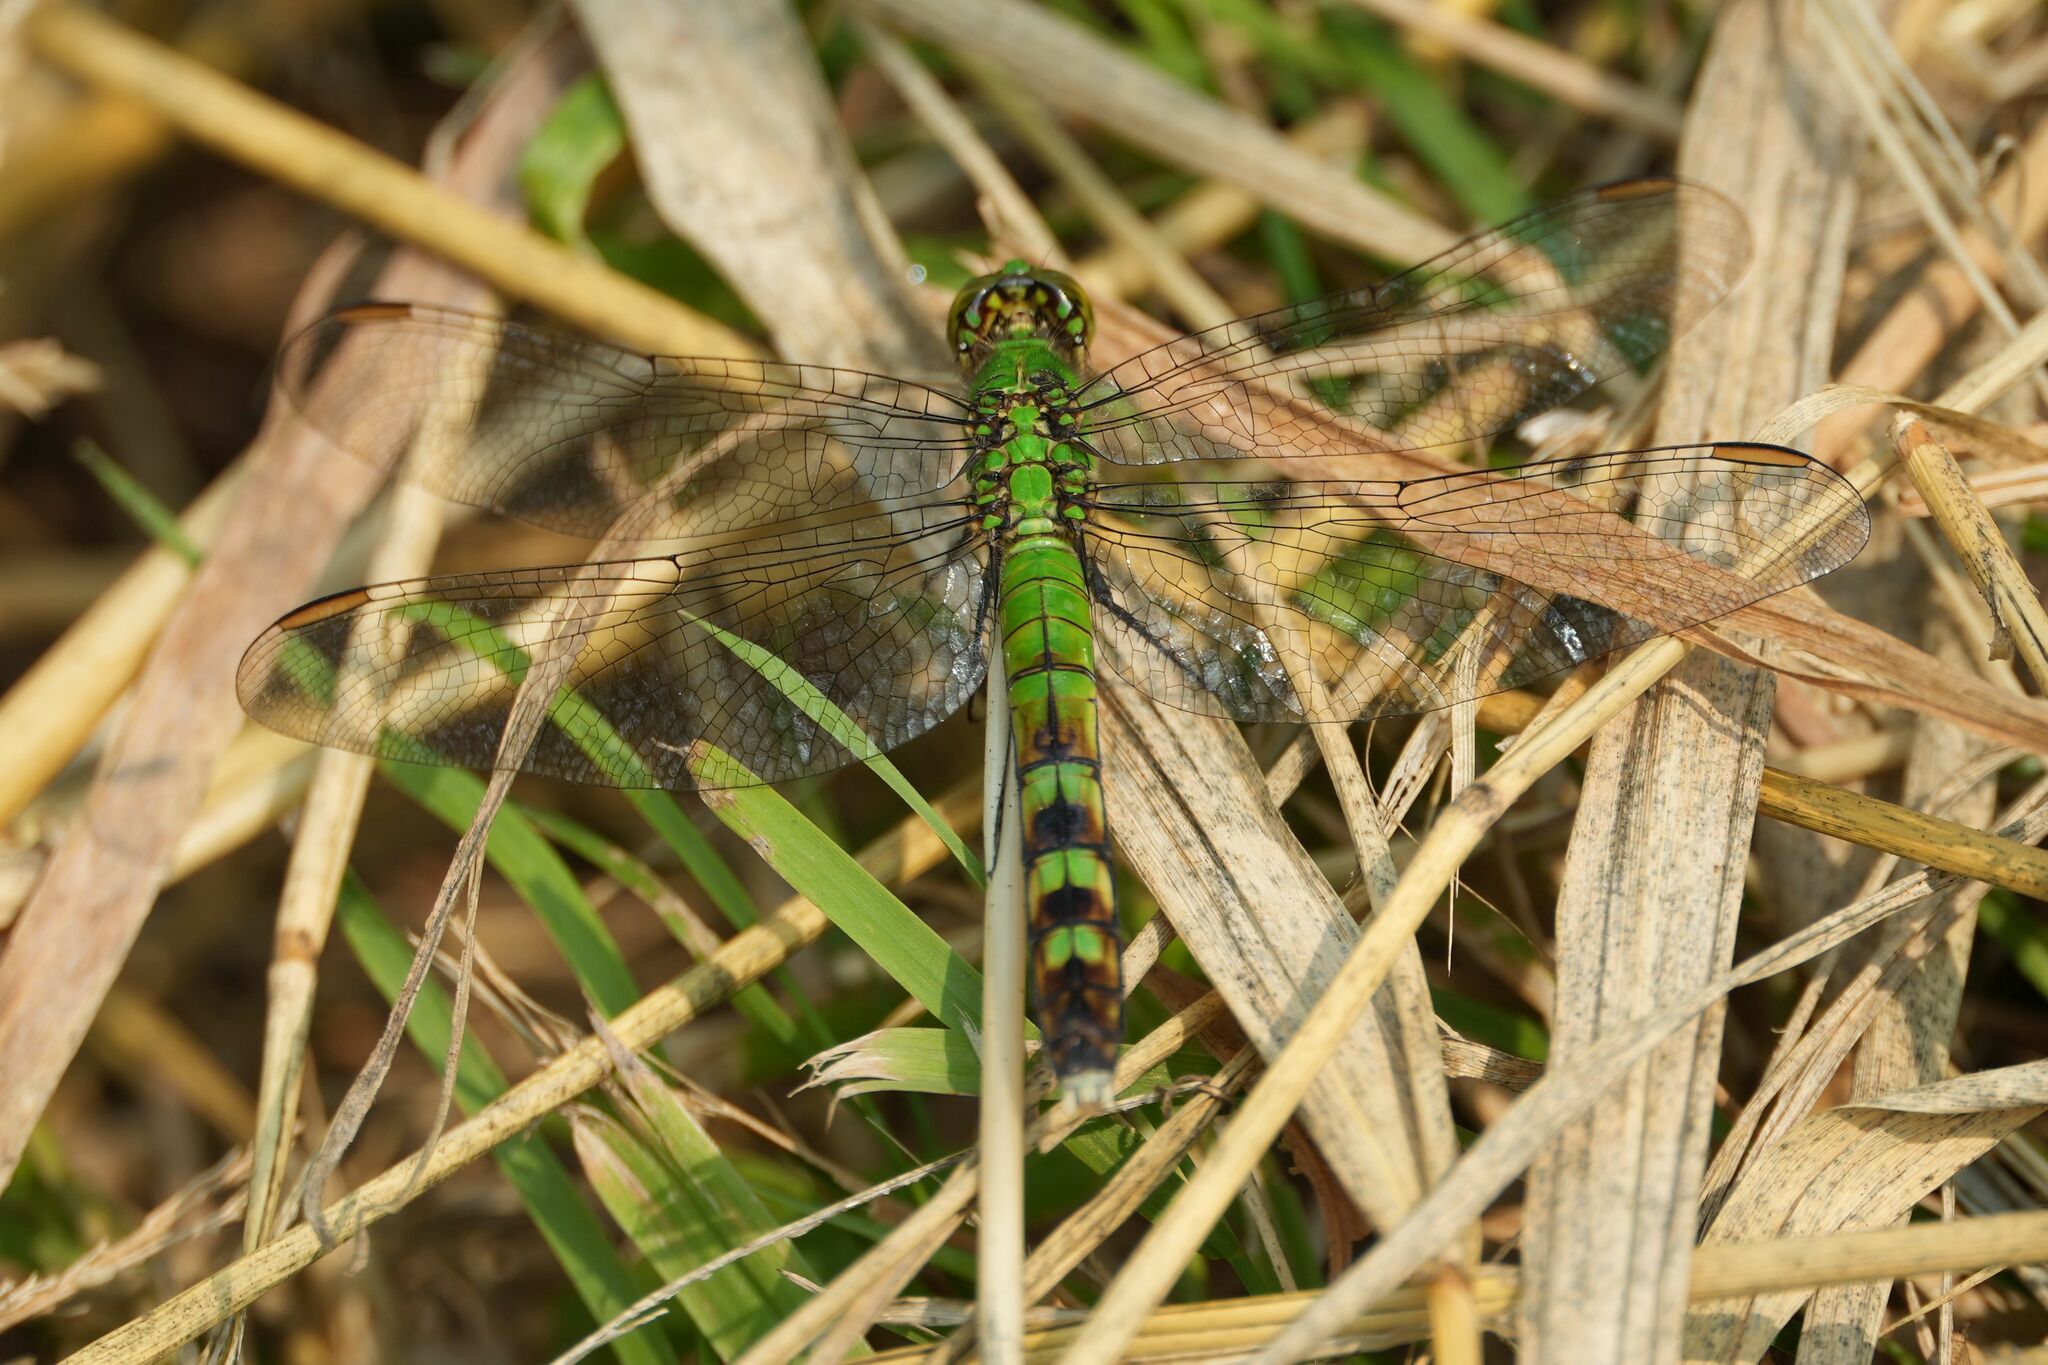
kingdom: Animalia
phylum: Arthropoda
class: Insecta
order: Odonata
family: Libellulidae
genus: Erythemis
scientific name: Erythemis simplicicollis
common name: Eastern pondhawk
